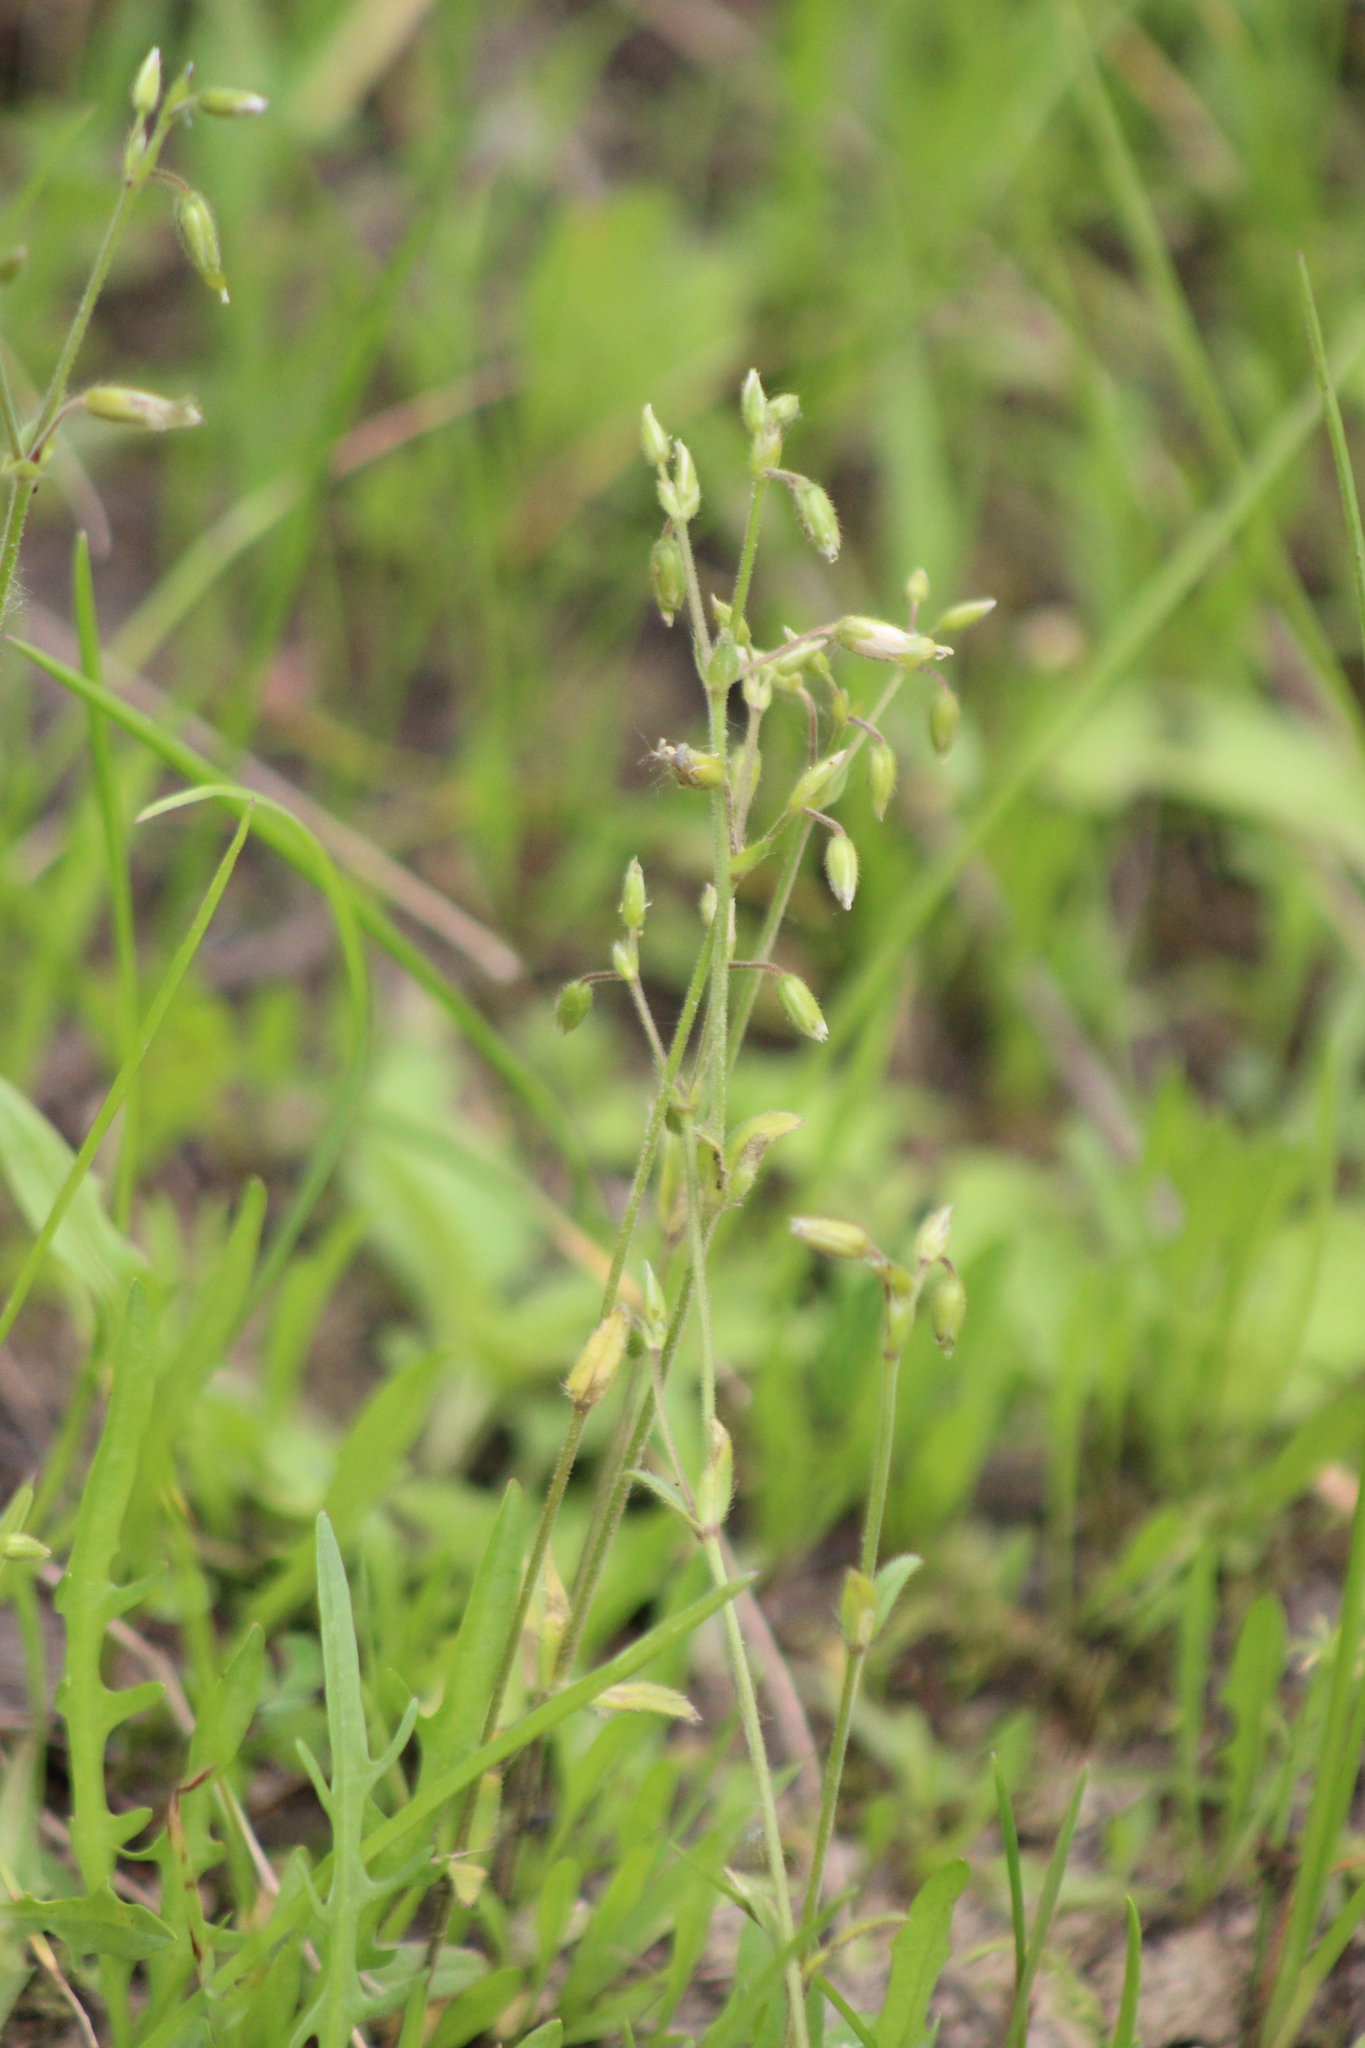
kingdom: Plantae
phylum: Tracheophyta
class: Magnoliopsida
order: Caryophyllales
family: Caryophyllaceae
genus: Cerastium
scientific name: Cerastium holosteoides
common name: Big chickweed
